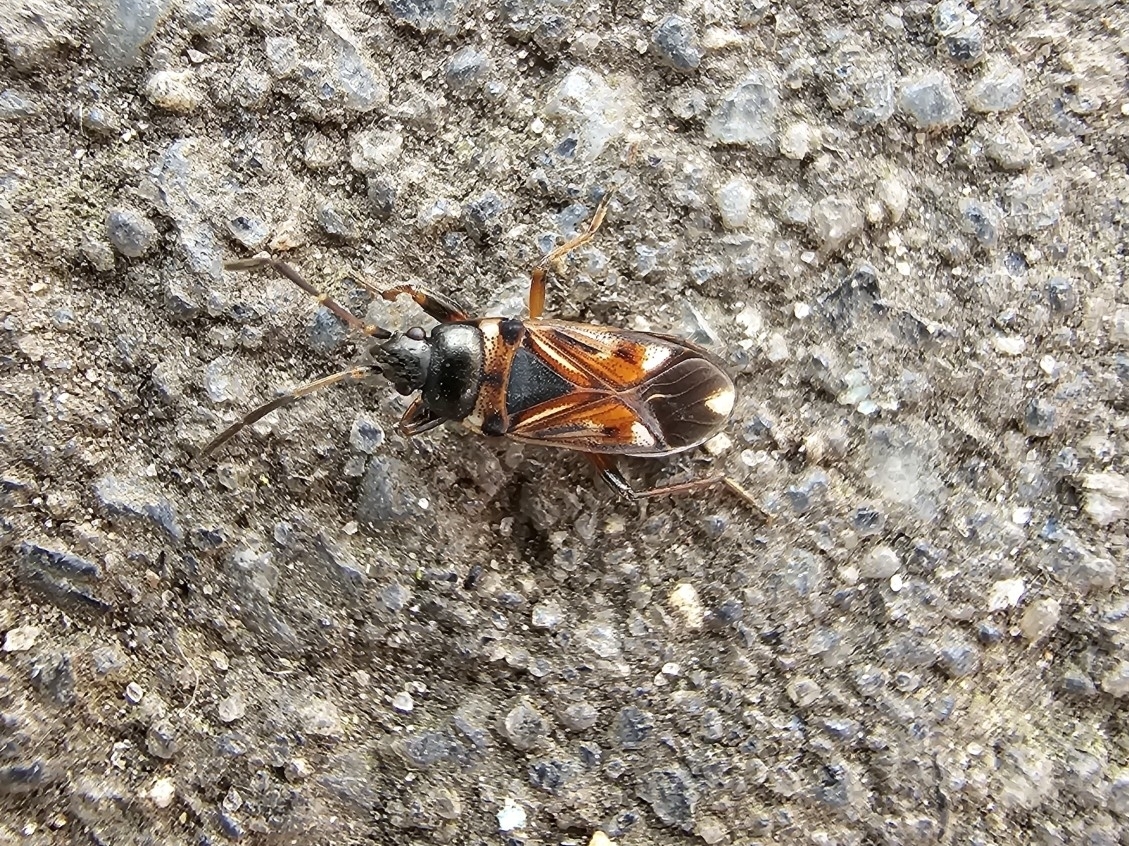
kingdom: Animalia
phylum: Arthropoda
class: Insecta
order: Hemiptera
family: Rhyparochromidae
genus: Raglius
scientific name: Raglius alboacuminatus
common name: Dirt-colored seed bug
